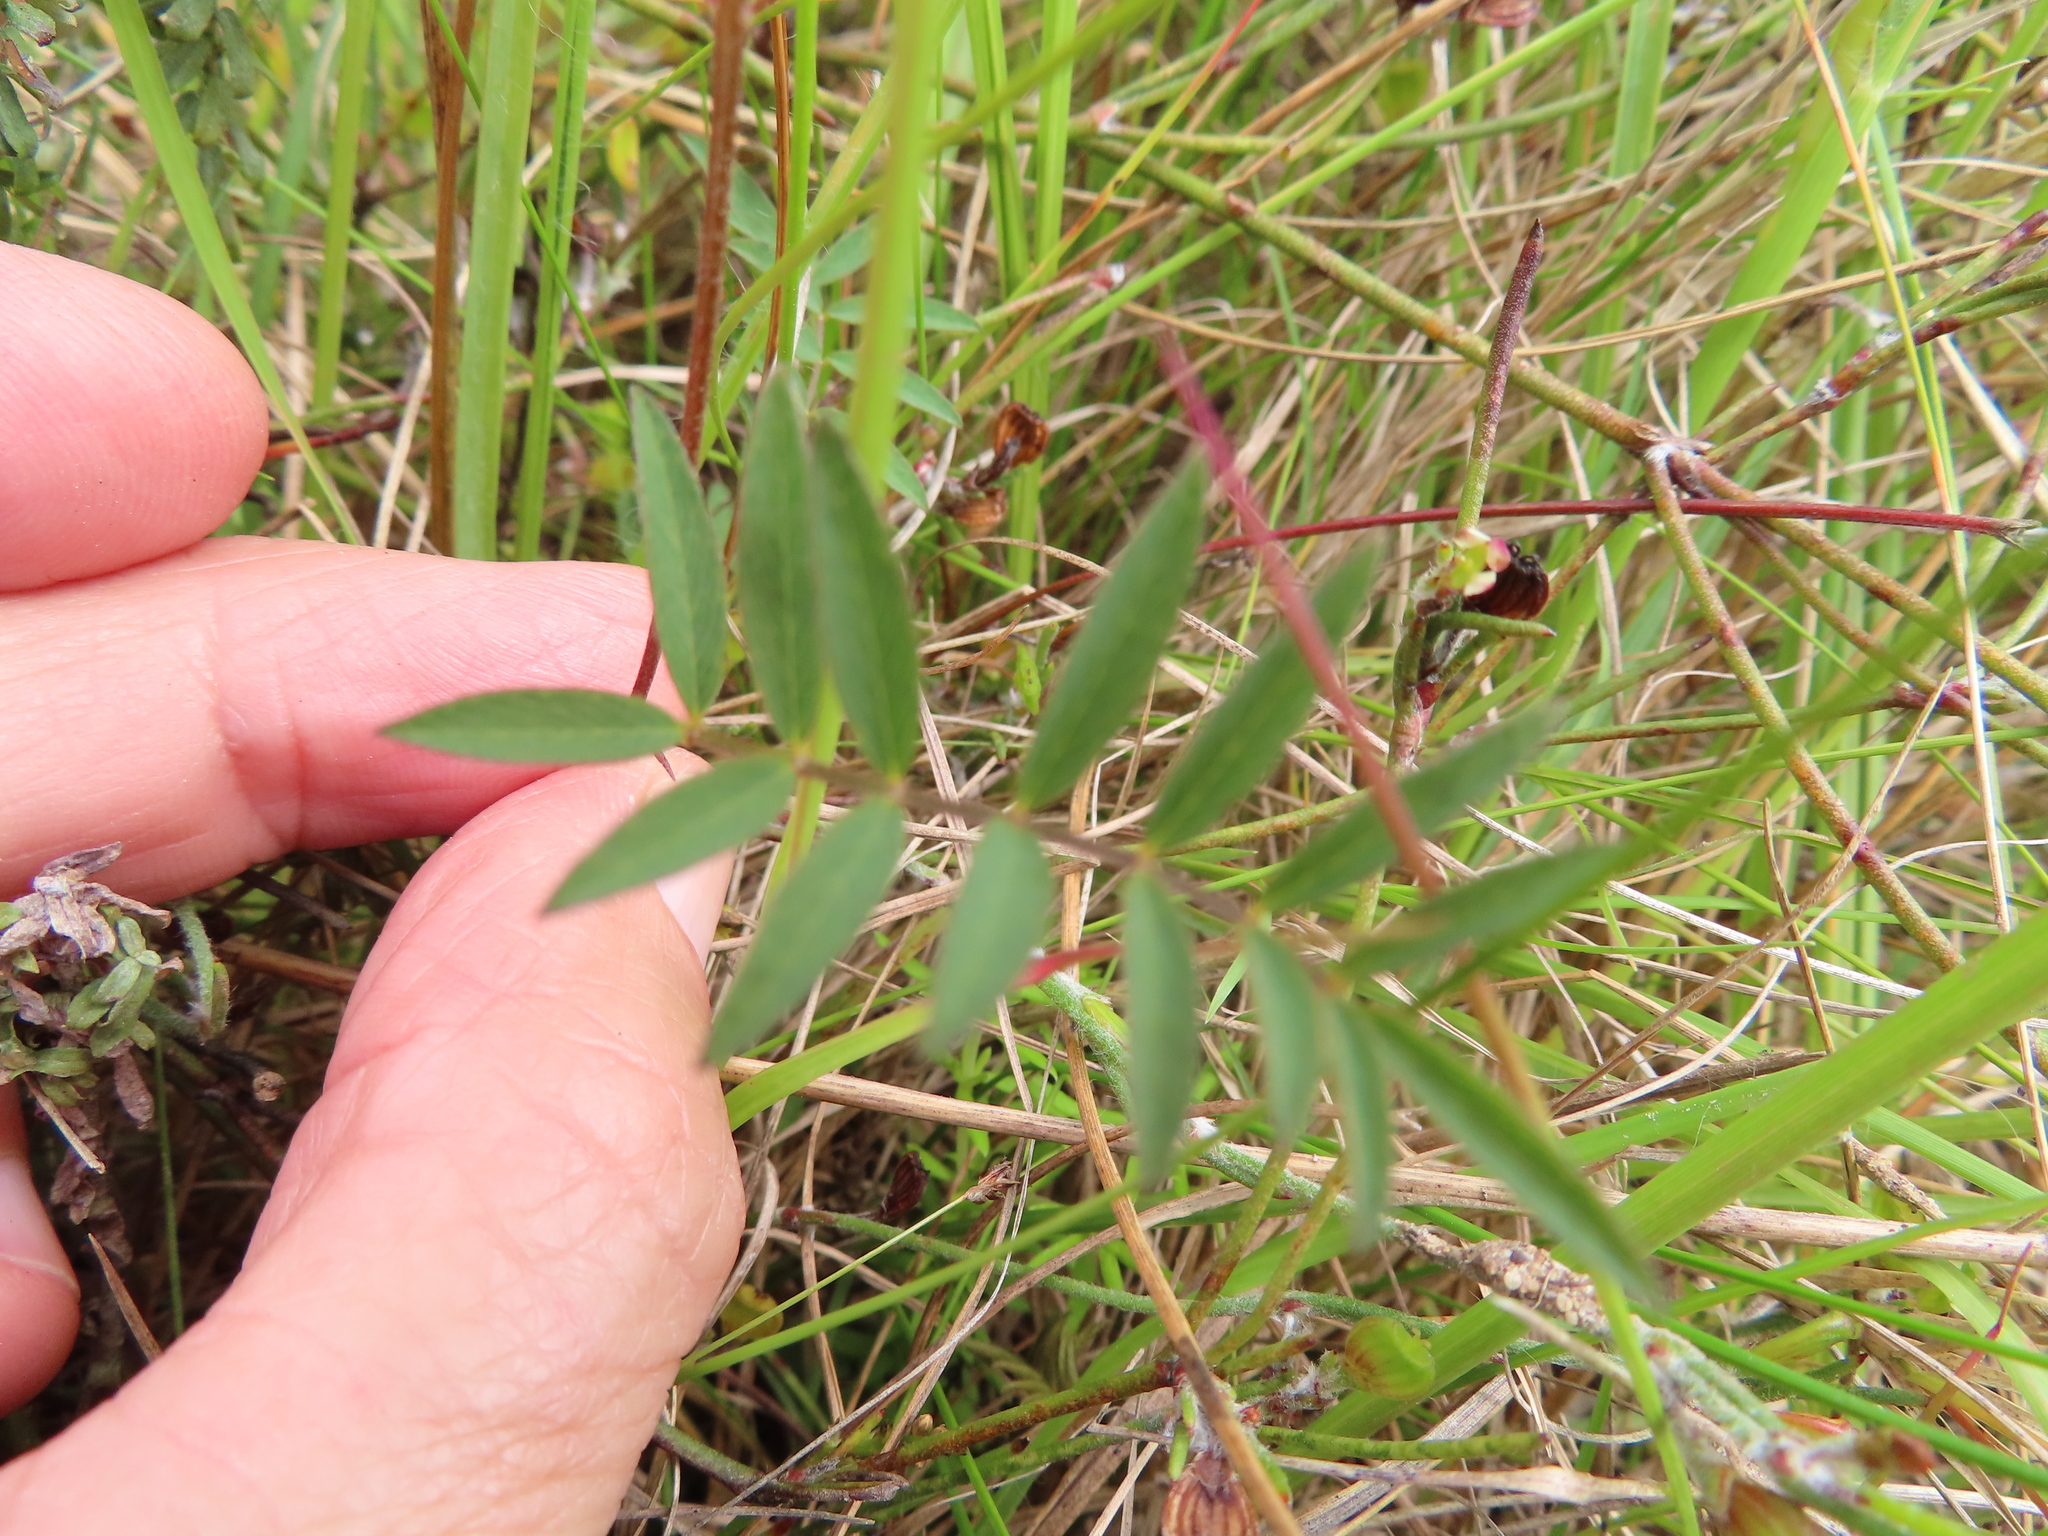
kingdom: Plantae
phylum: Tracheophyta
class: Magnoliopsida
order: Fabales
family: Fabaceae
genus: Tephrosia
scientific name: Tephrosia capensis
